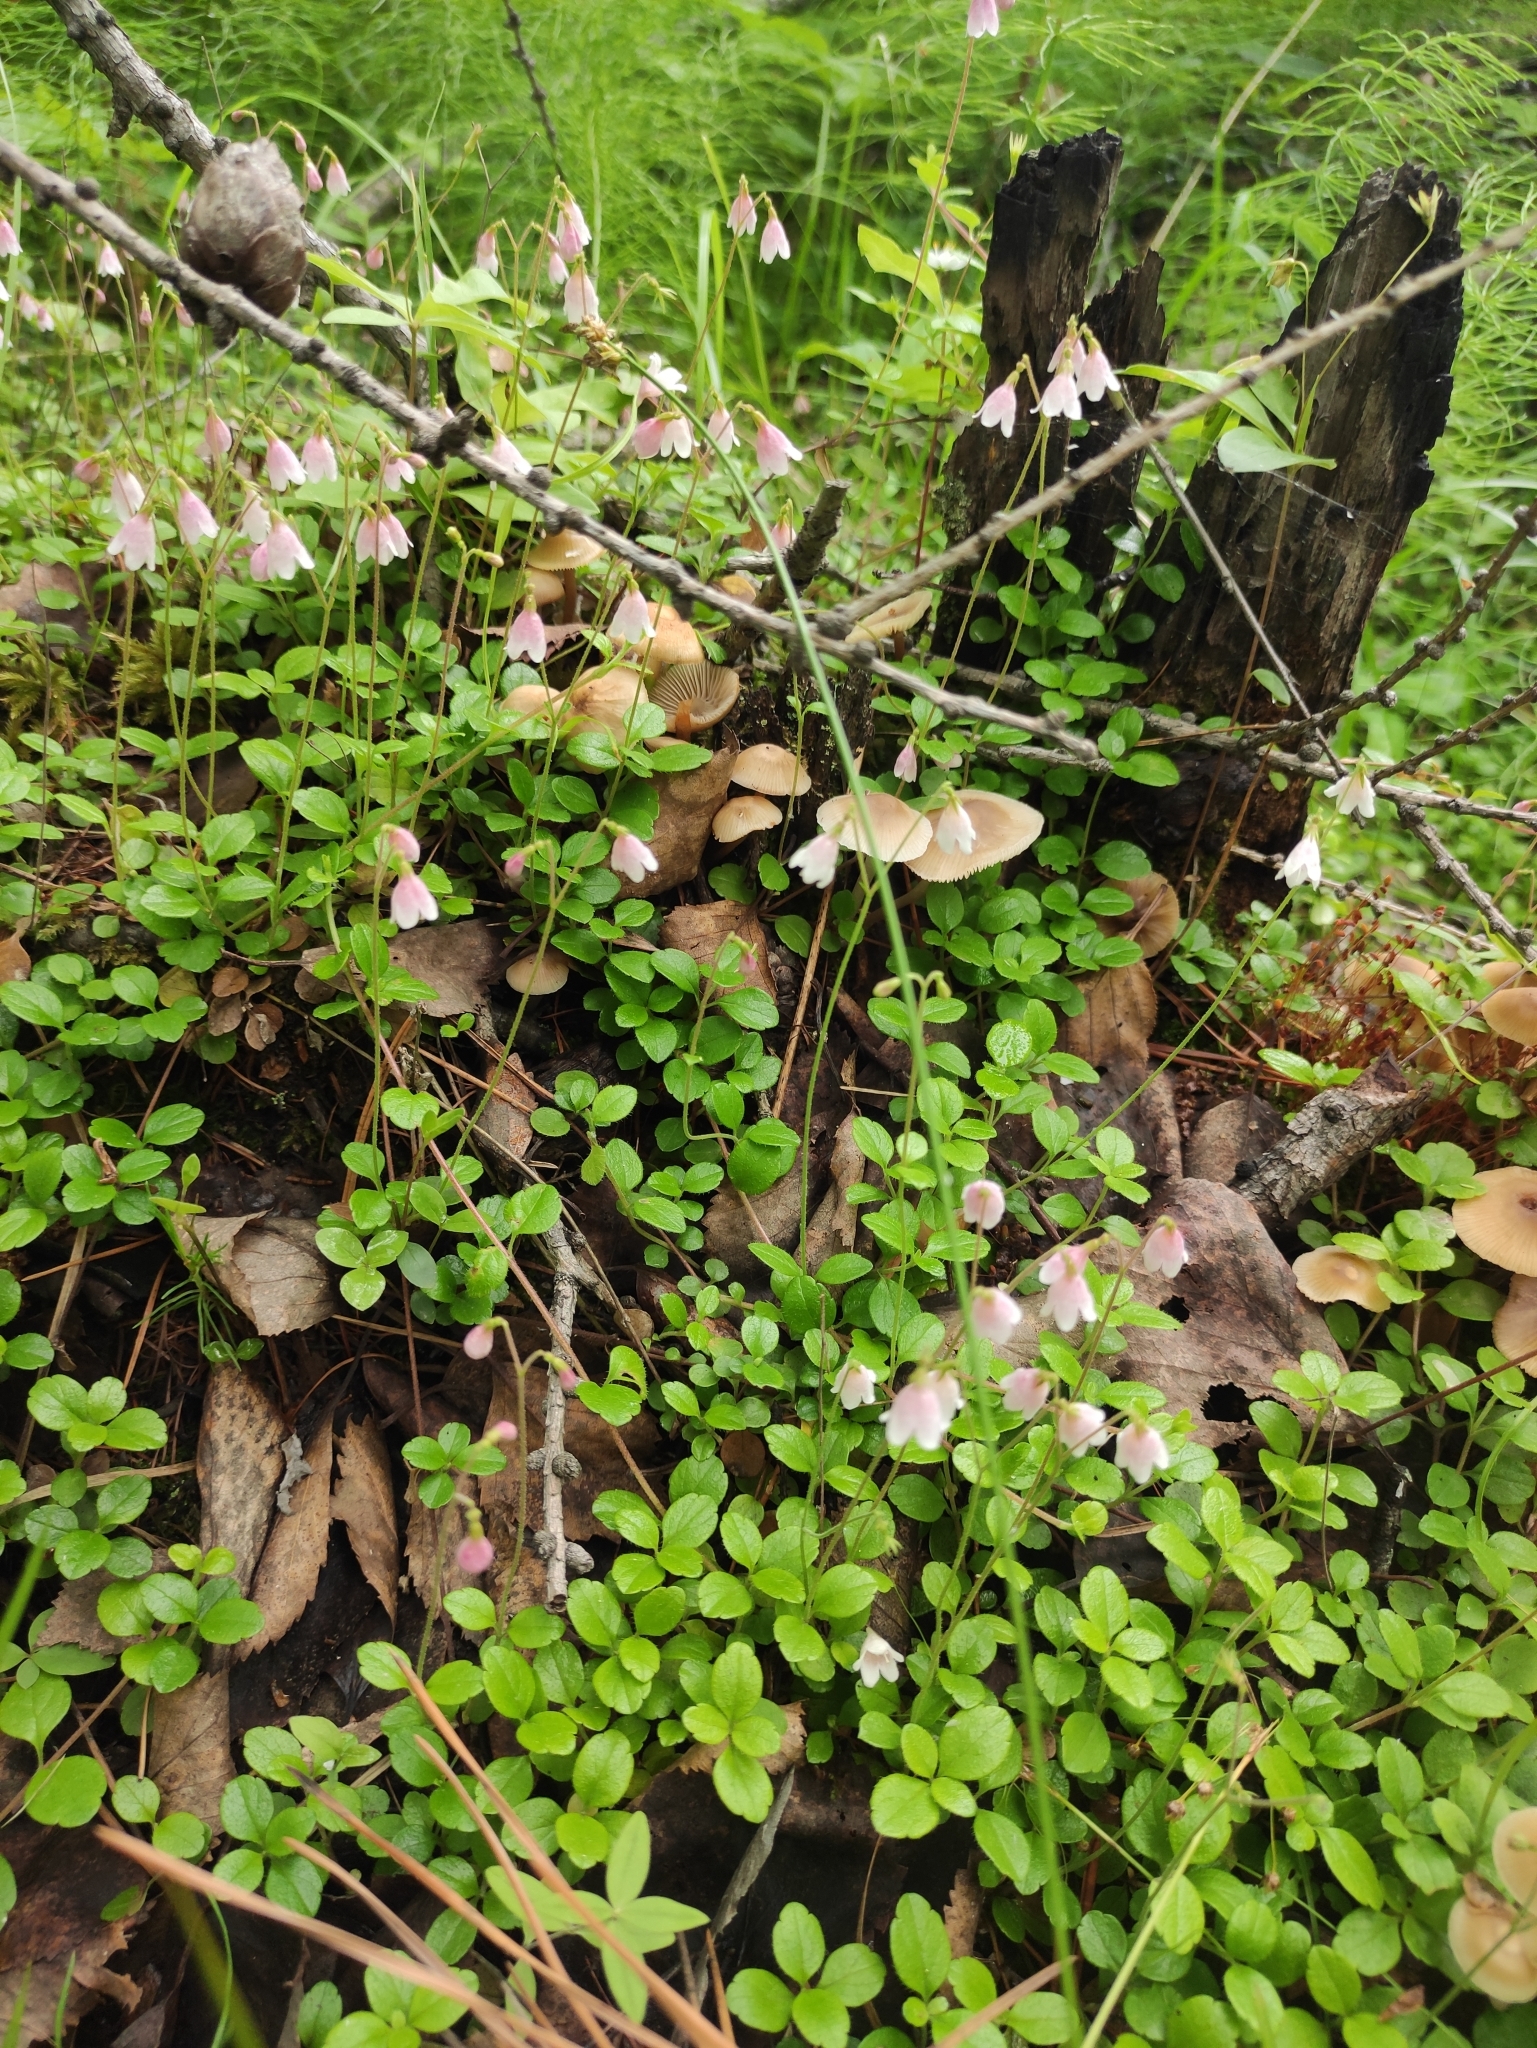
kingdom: Plantae
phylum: Tracheophyta
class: Magnoliopsida
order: Dipsacales
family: Caprifoliaceae
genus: Linnaea
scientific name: Linnaea borealis
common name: Twinflower
